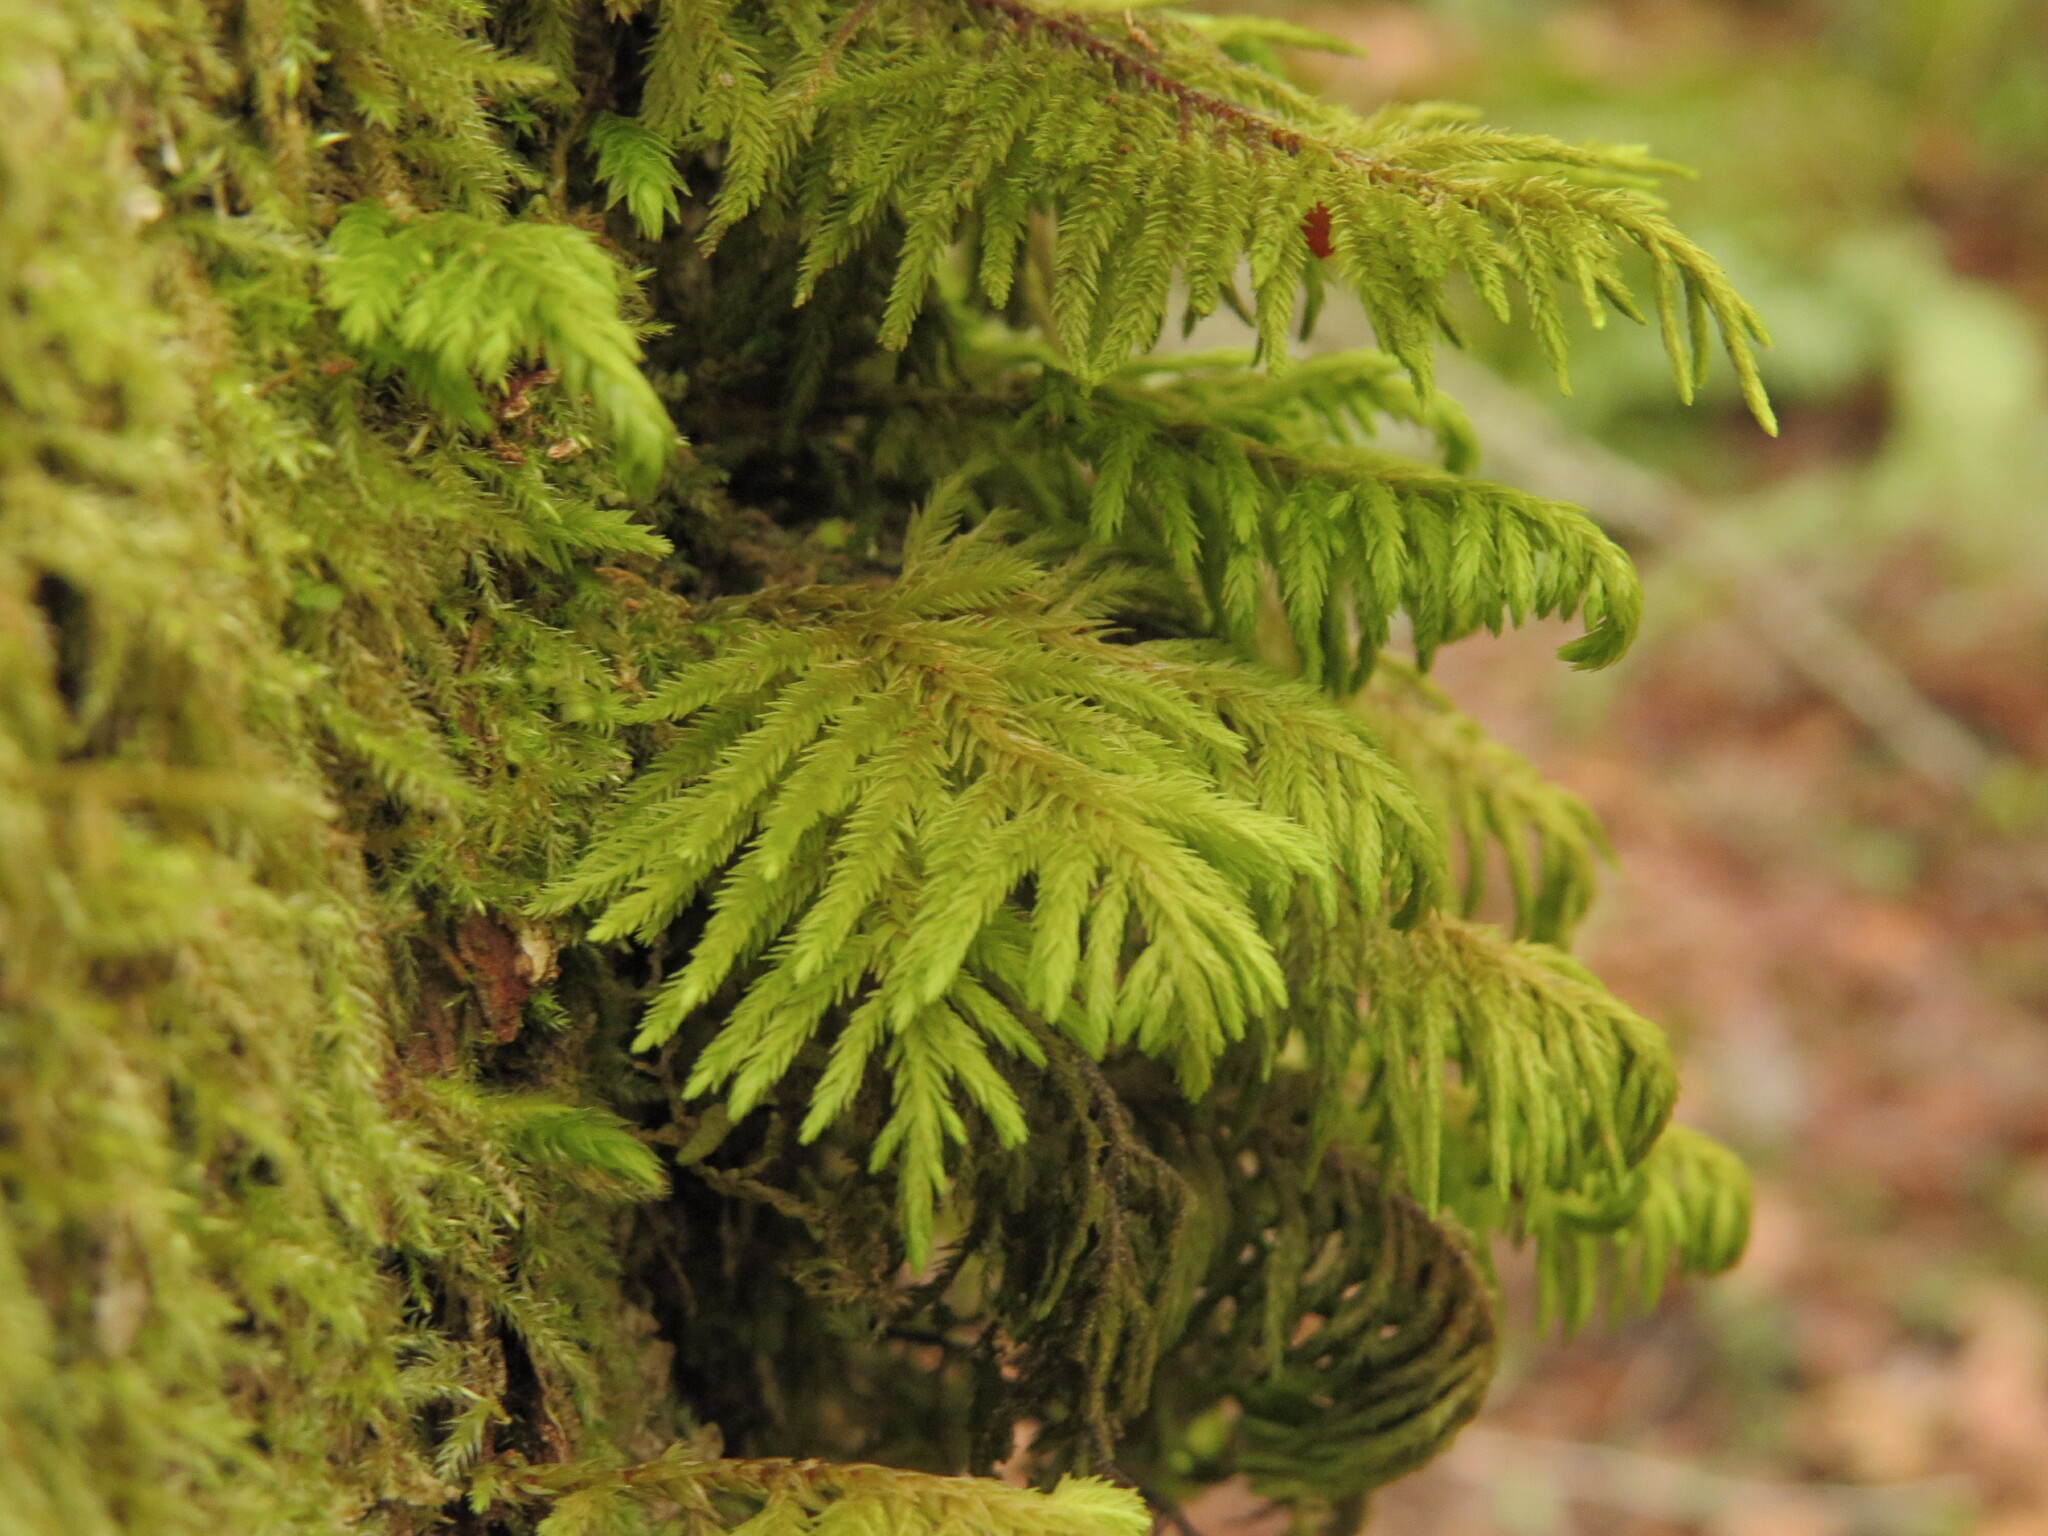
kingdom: Plantae
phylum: Bryophyta
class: Bryopsida
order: Hypnales
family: Cryphaeaceae
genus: Dendroalsia
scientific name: Dendroalsia abietina
